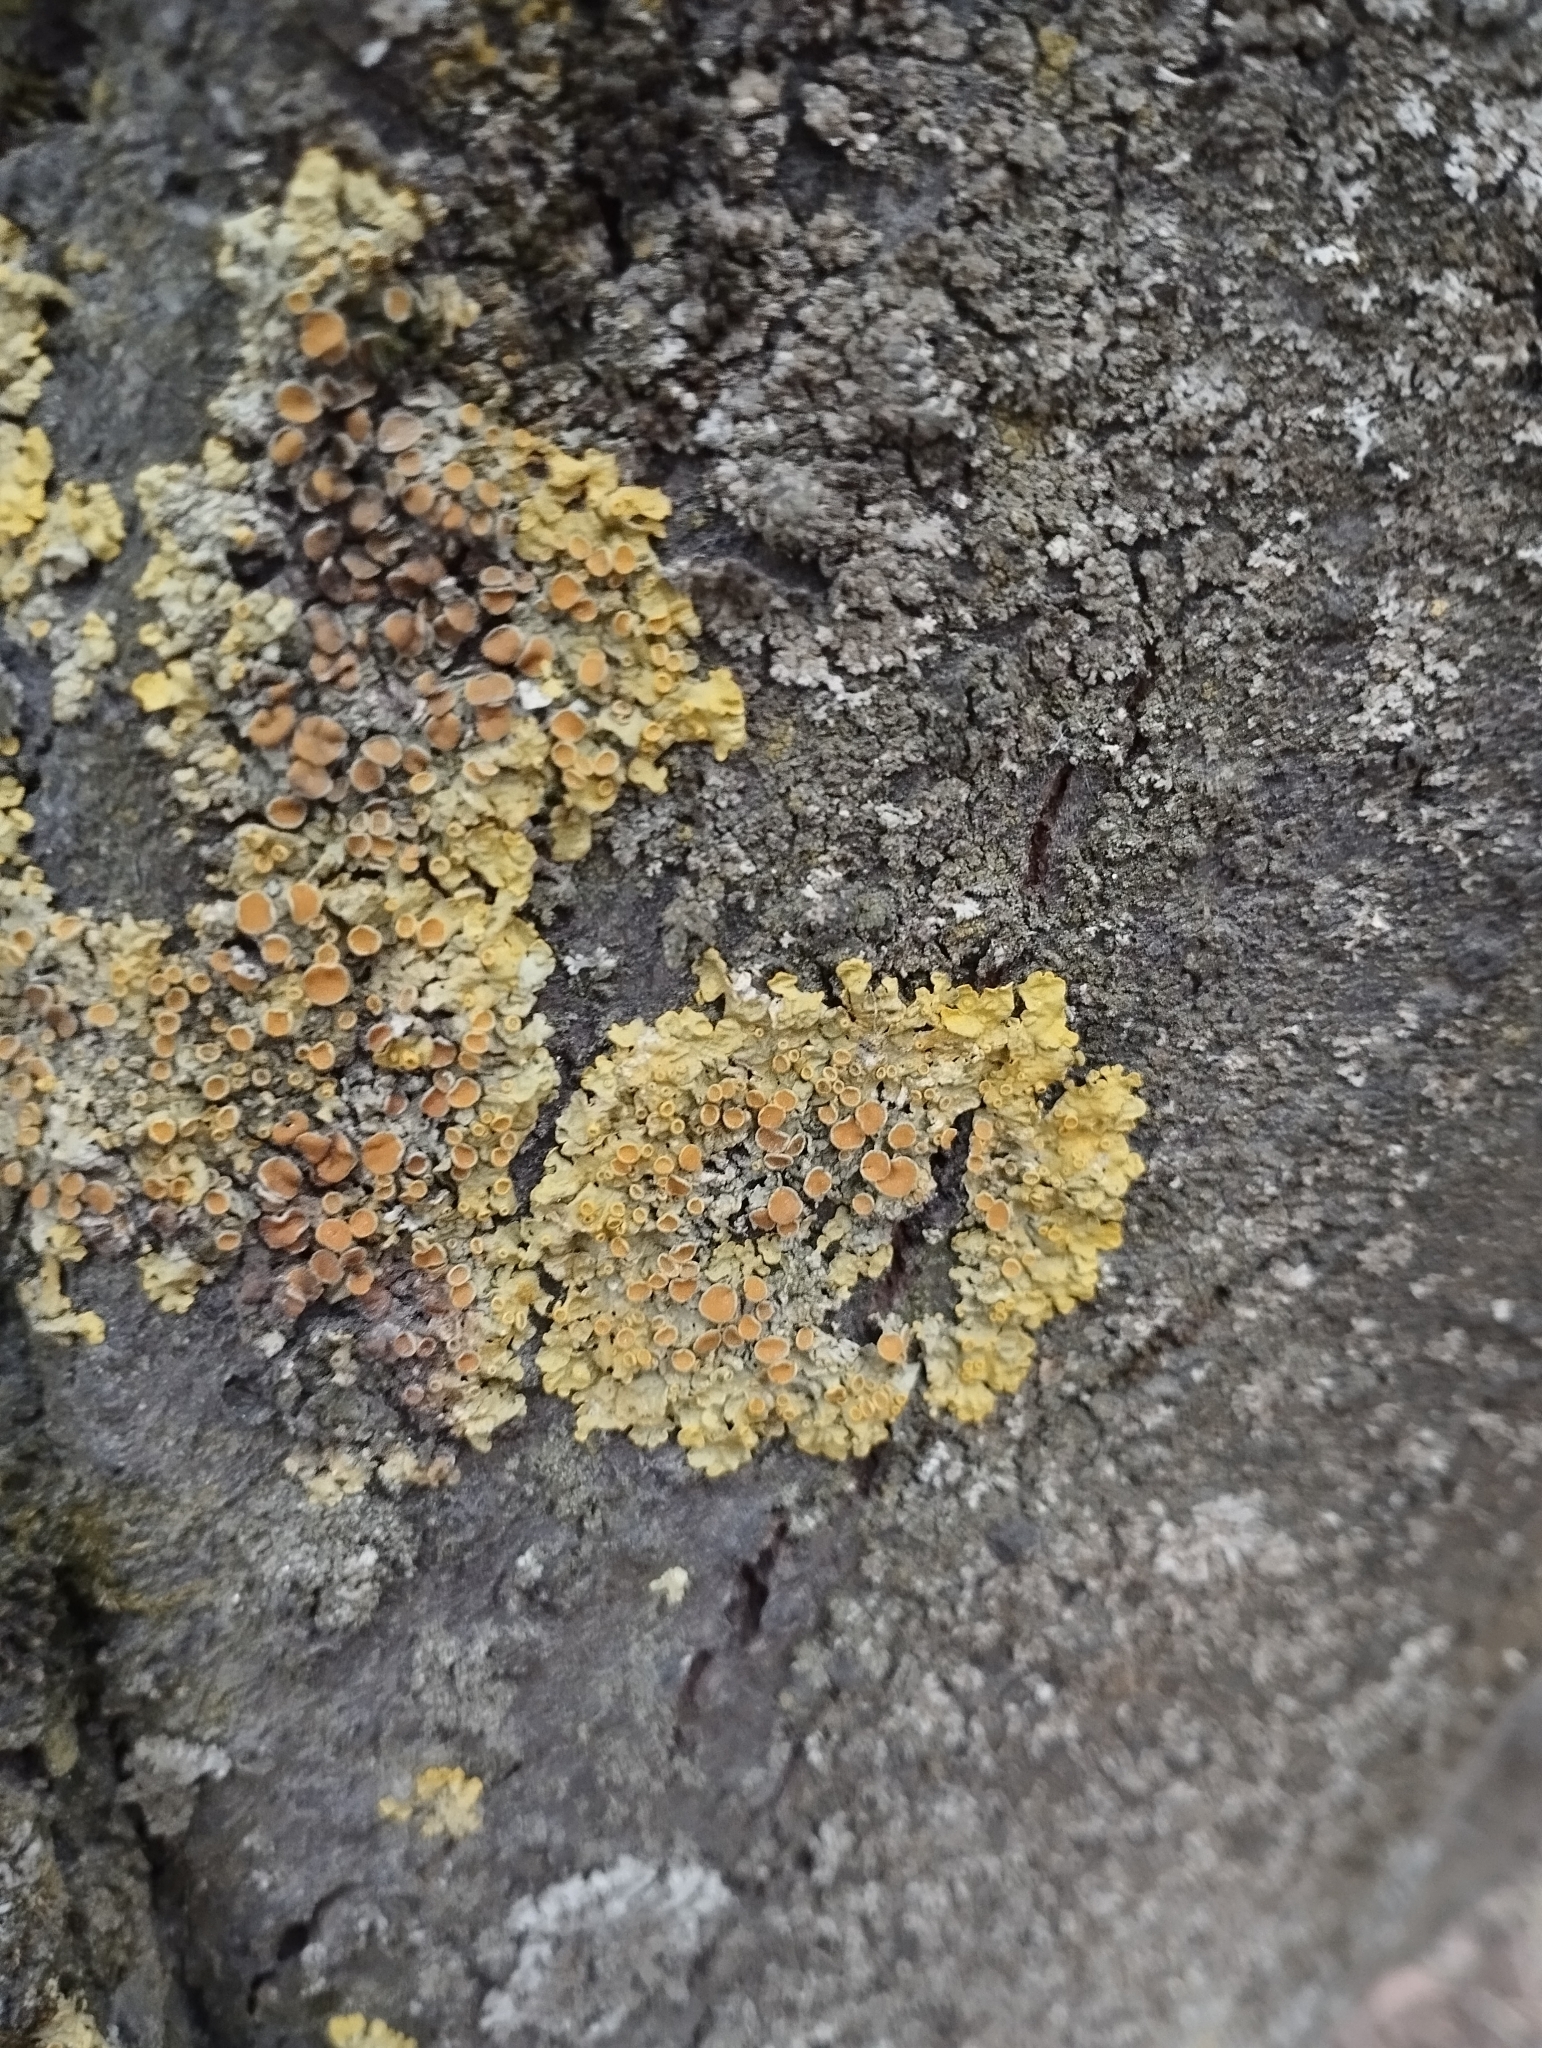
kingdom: Fungi
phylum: Ascomycota
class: Lecanoromycetes
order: Teloschistales
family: Teloschistaceae
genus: Xanthoria
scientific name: Xanthoria parietina
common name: Common orange lichen
